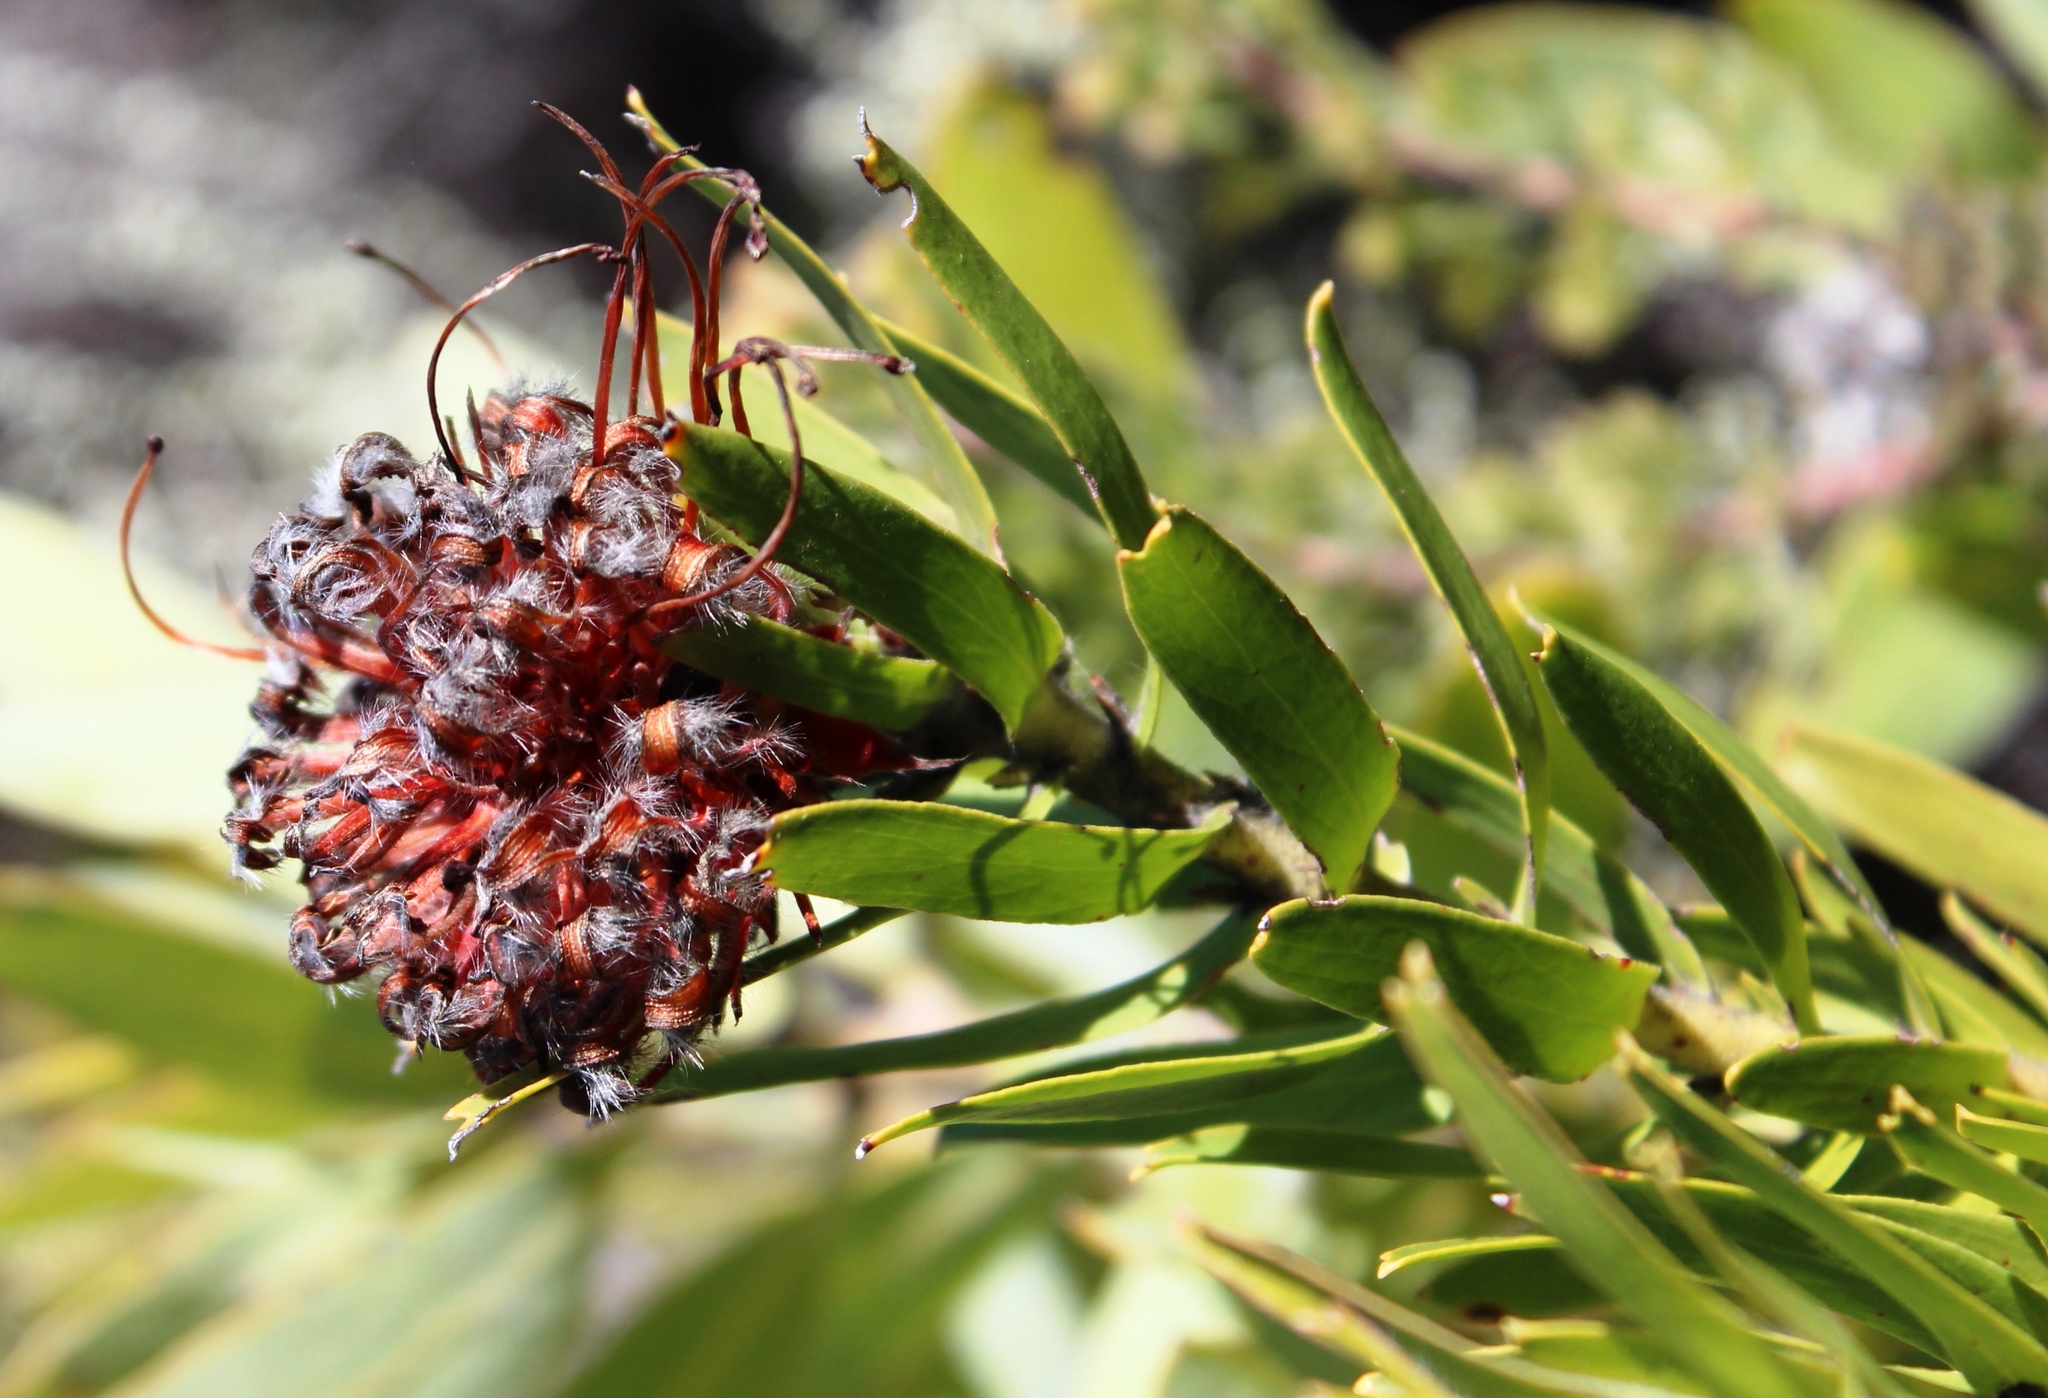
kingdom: Plantae
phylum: Tracheophyta
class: Magnoliopsida
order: Proteales
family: Proteaceae
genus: Leucospermum
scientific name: Leucospermum vestitum
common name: Silky-hair pincushion
